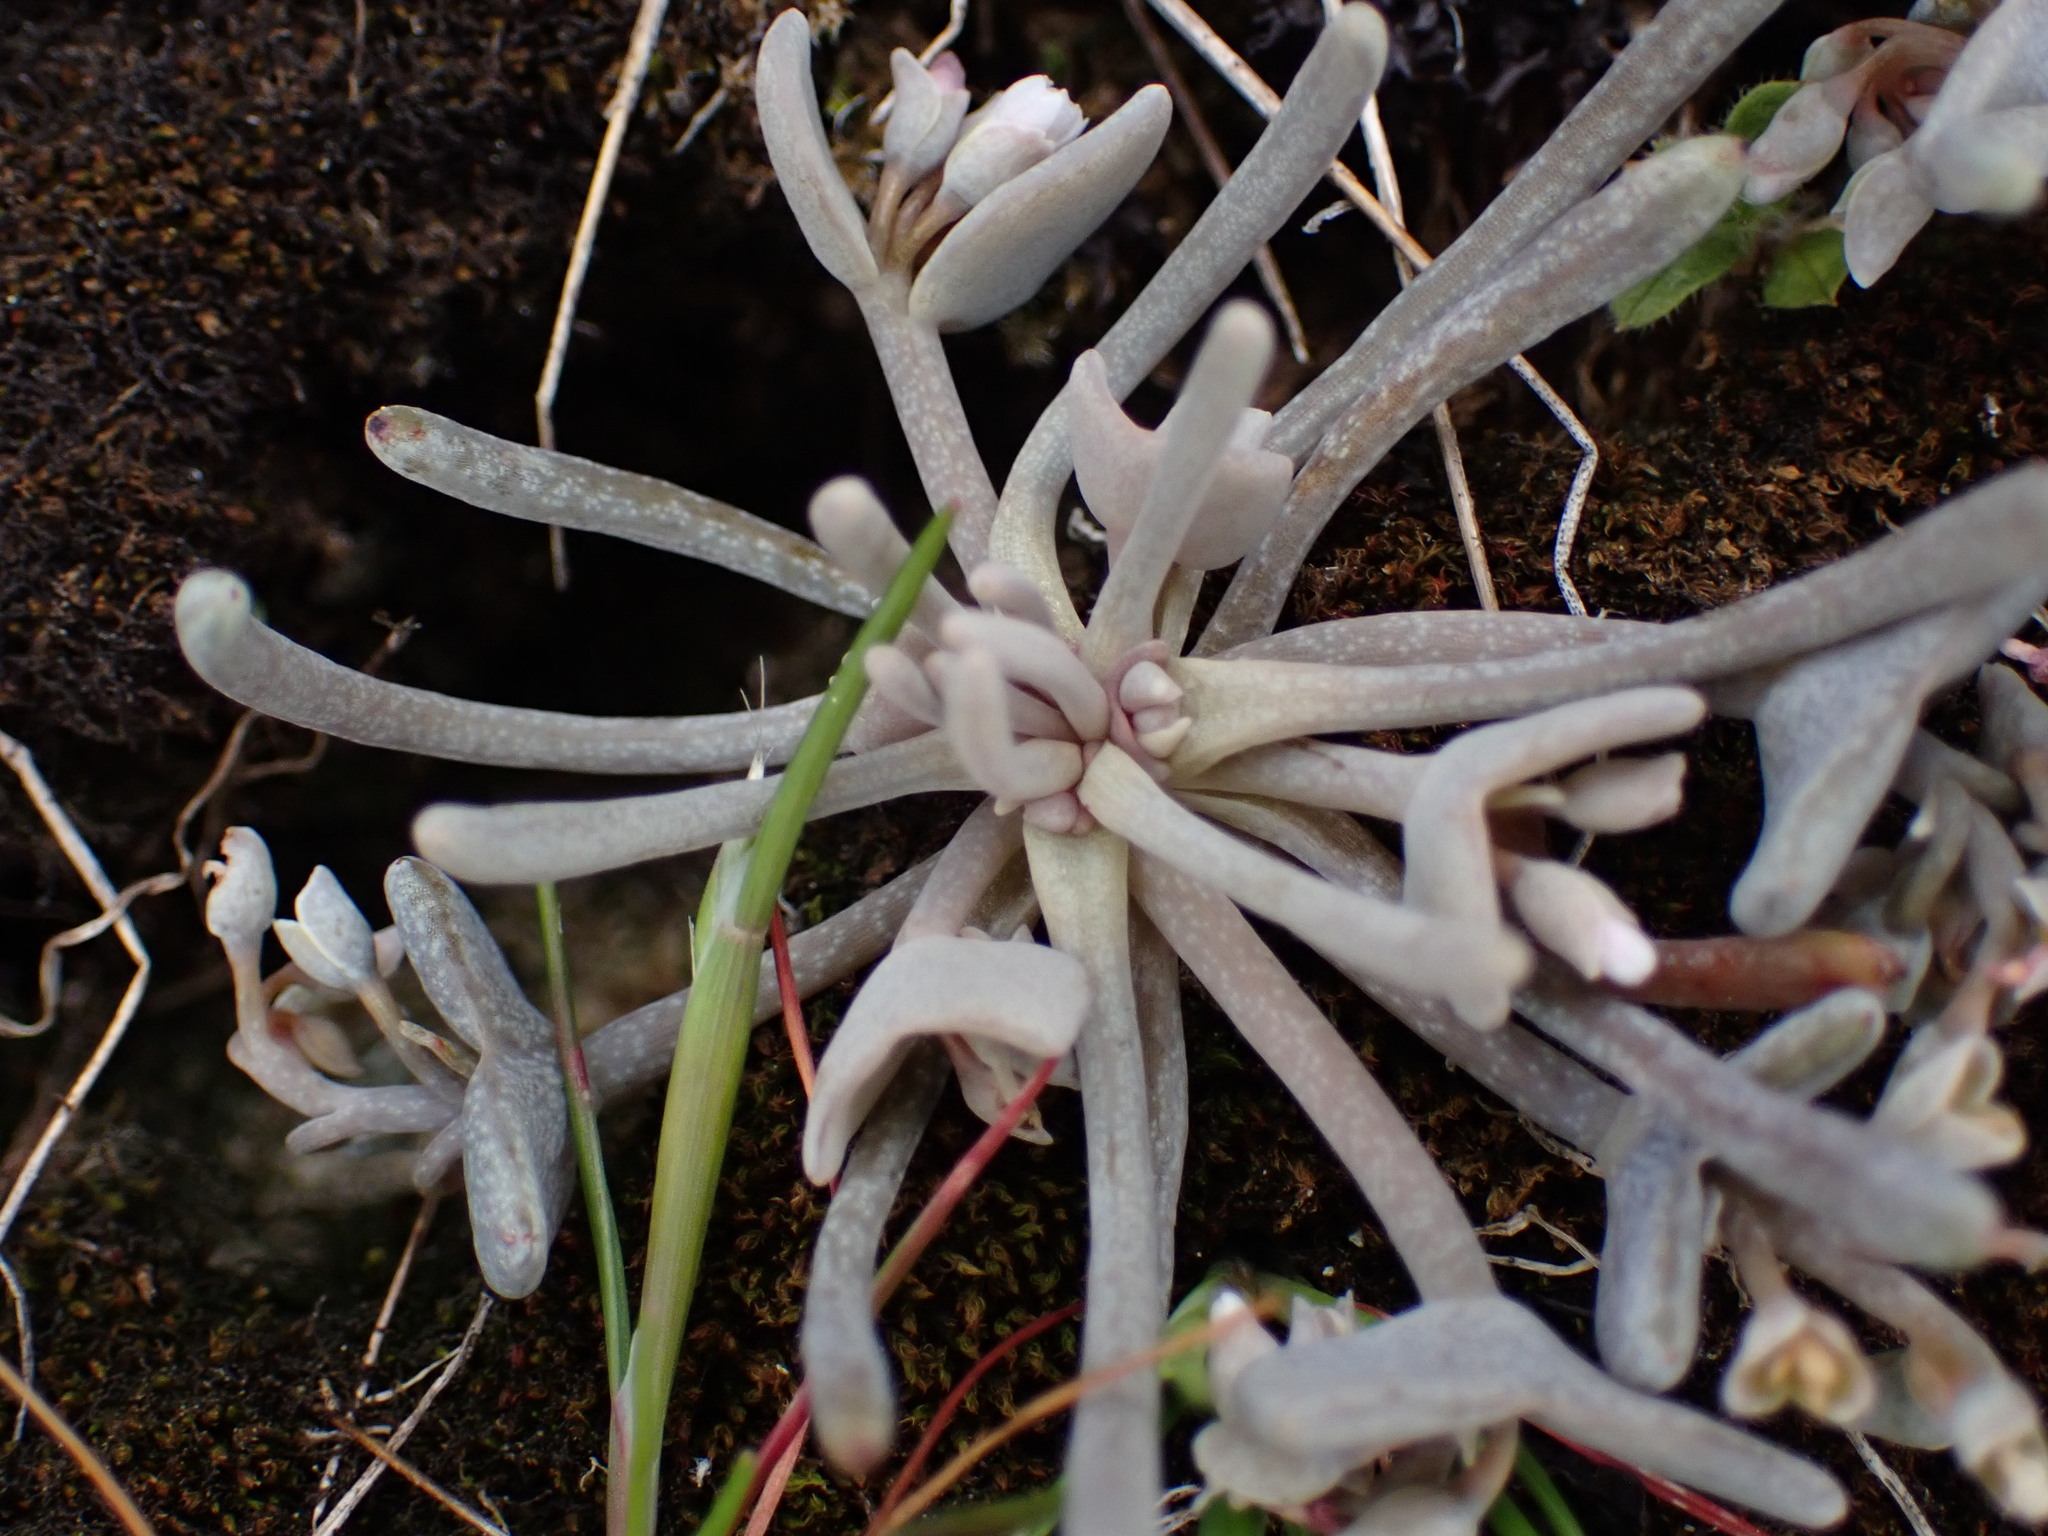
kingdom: Plantae
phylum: Tracheophyta
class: Magnoliopsida
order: Caryophyllales
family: Montiaceae
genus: Claytonia
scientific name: Claytonia exigua
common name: Pale spring beauty
